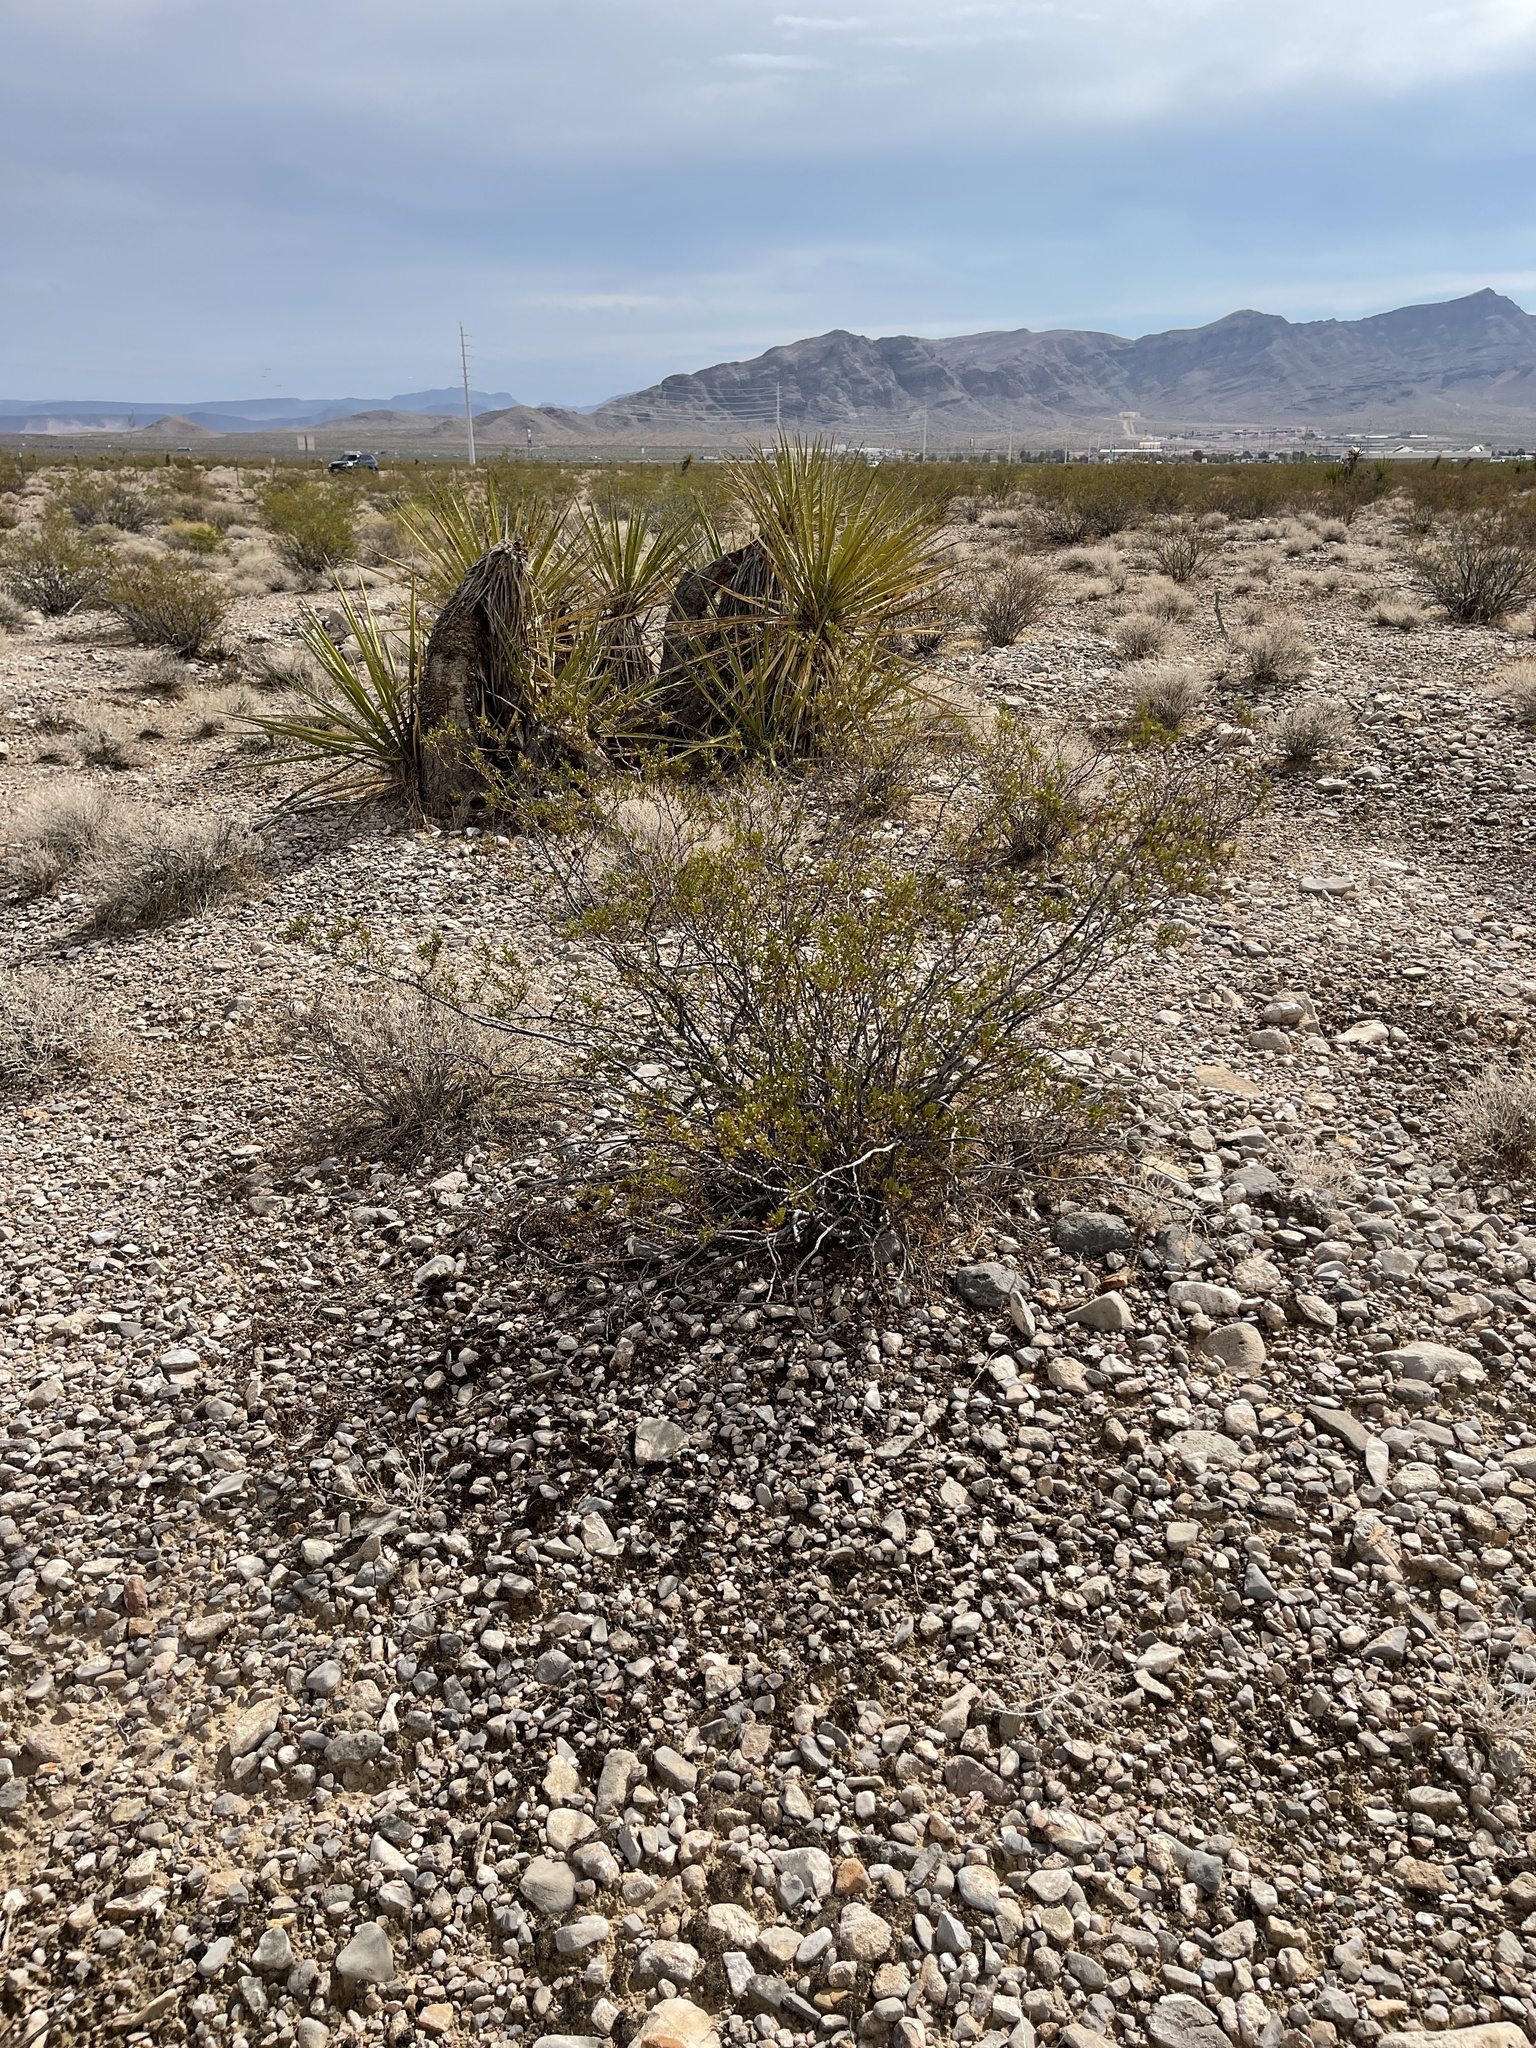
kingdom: Plantae
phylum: Tracheophyta
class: Magnoliopsida
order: Zygophyllales
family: Zygophyllaceae
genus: Larrea
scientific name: Larrea tridentata
